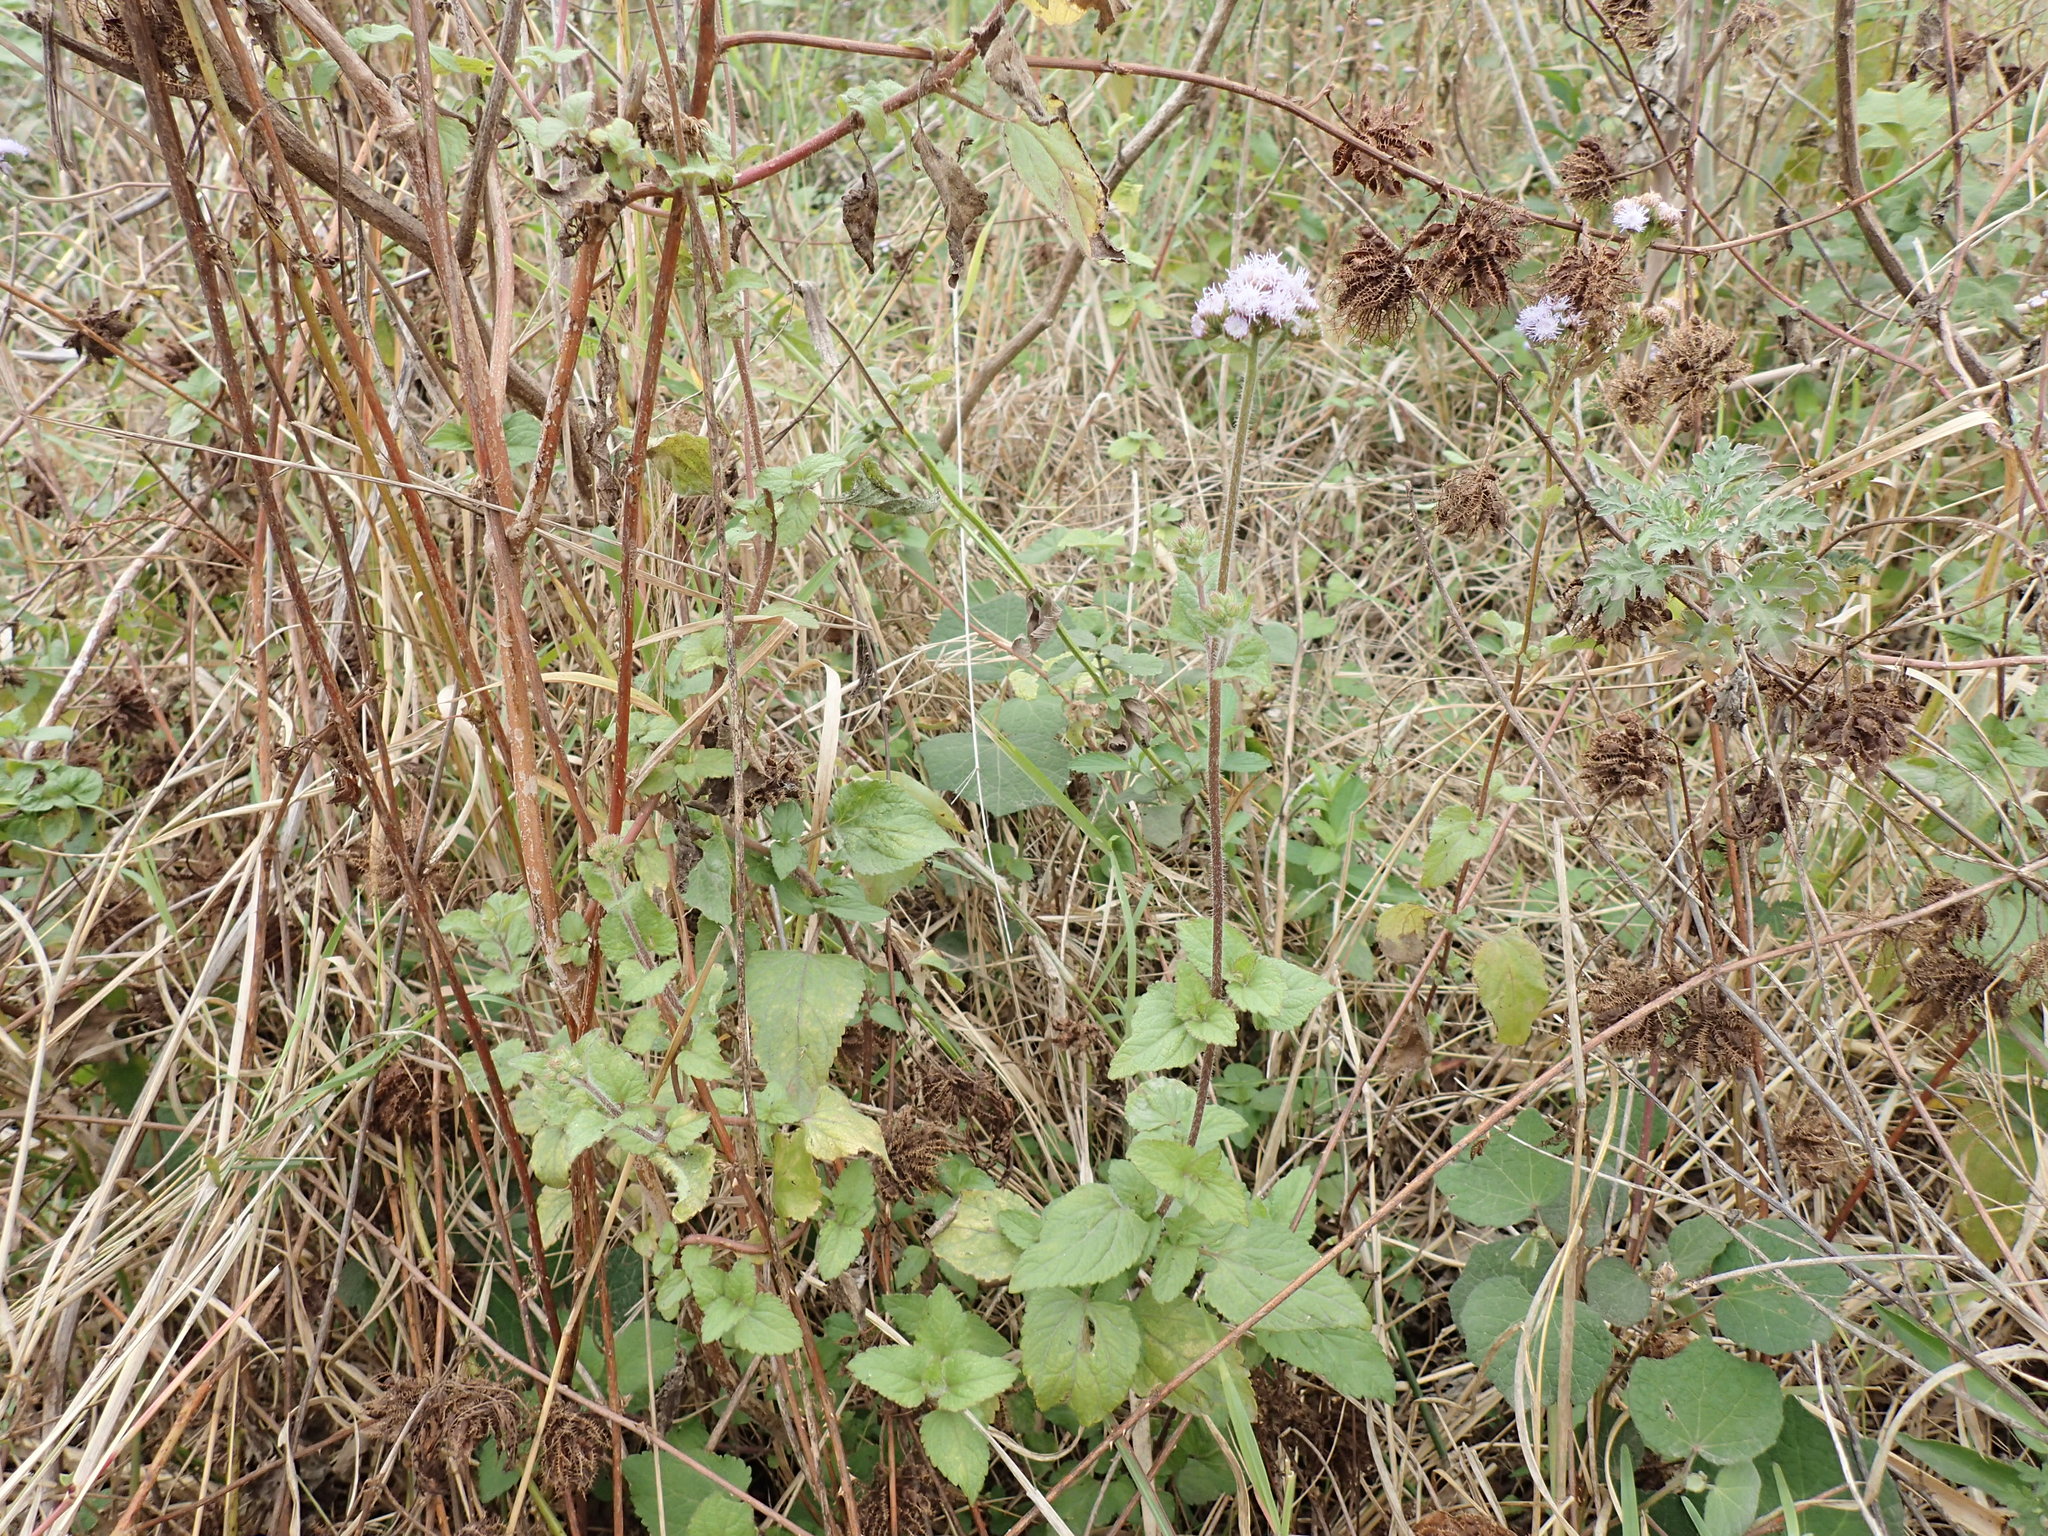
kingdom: Plantae
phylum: Tracheophyta
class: Magnoliopsida
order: Asterales
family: Asteraceae
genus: Ageratum
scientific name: Ageratum houstonianum
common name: Bluemink
